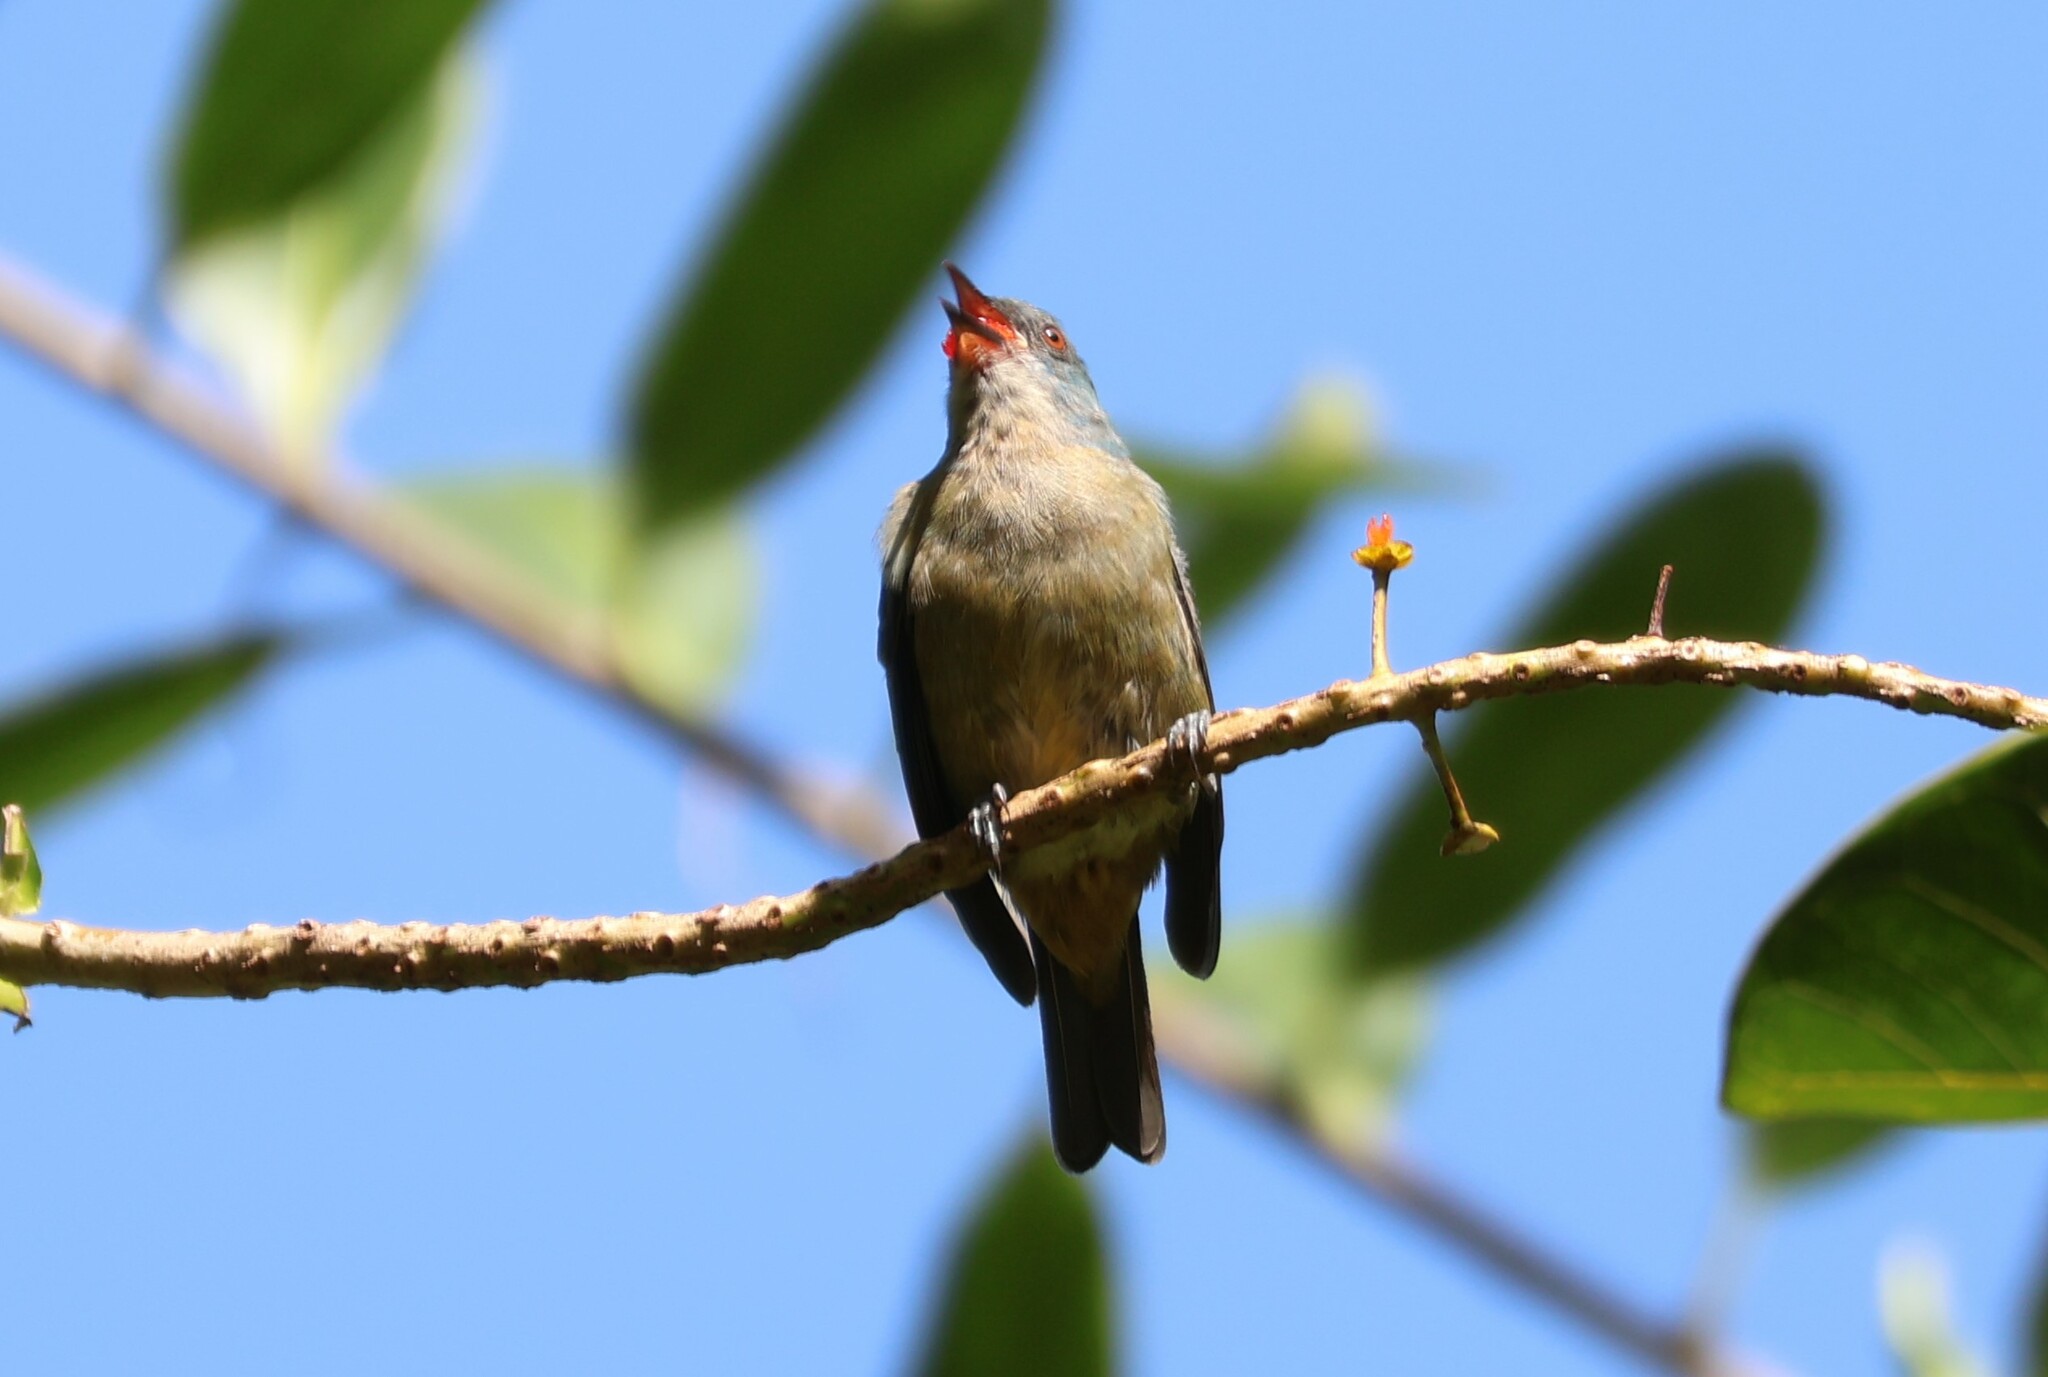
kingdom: Animalia
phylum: Chordata
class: Aves
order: Passeriformes
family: Thraupidae
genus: Dacnis
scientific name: Dacnis venusta
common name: Scarlet-thighed dacnis
